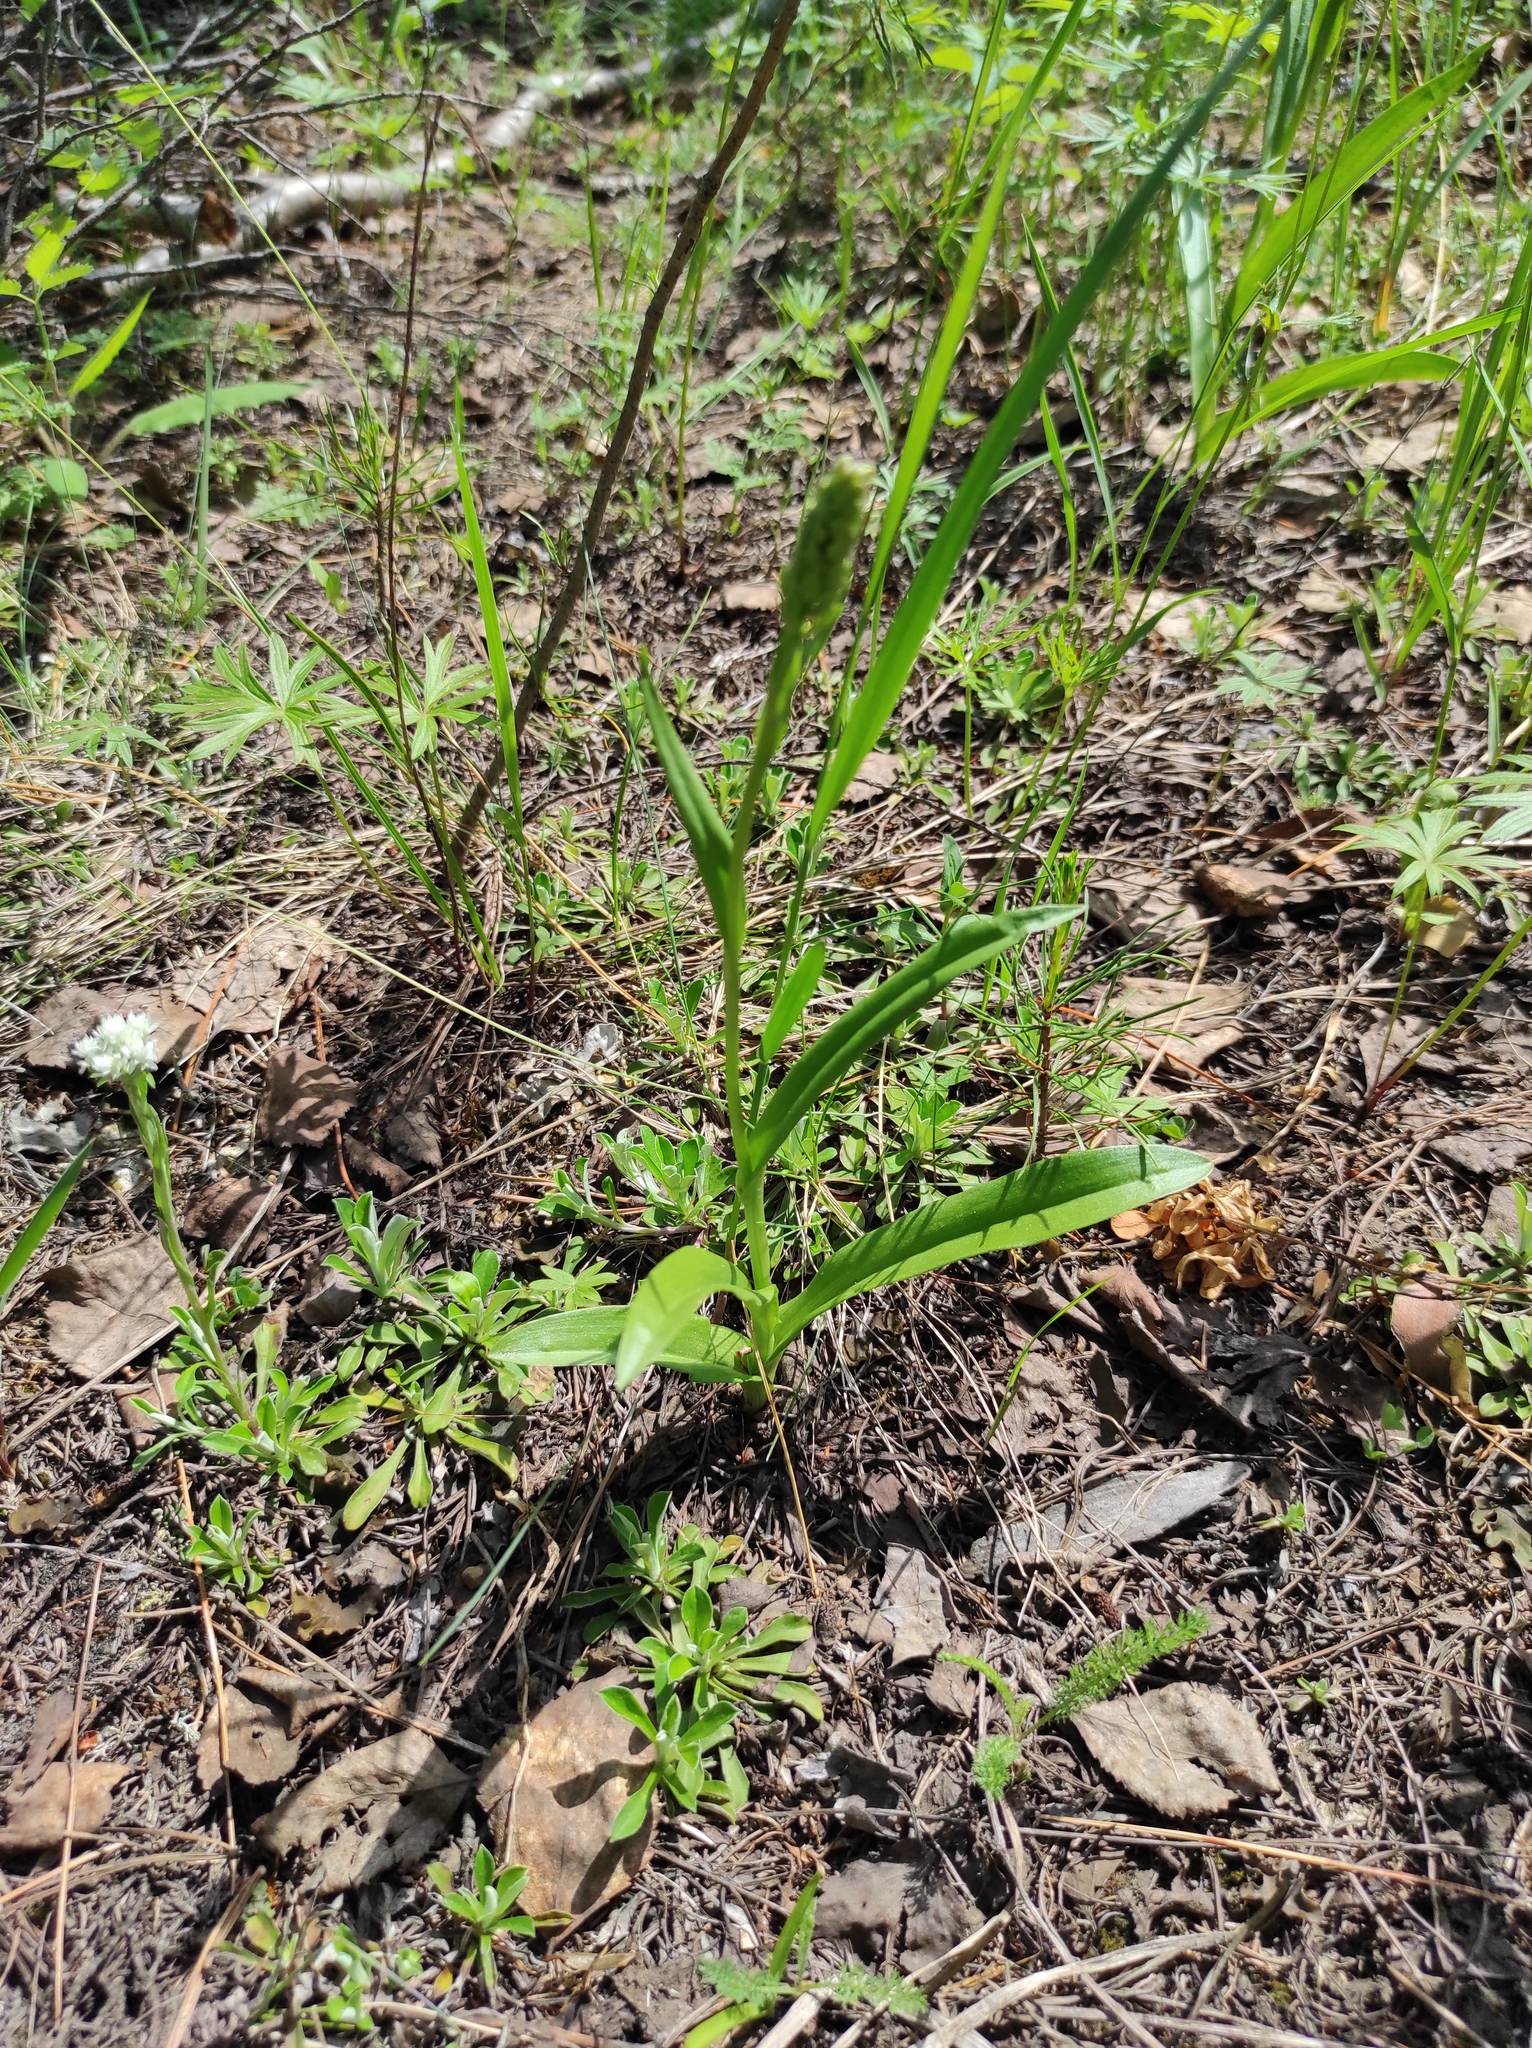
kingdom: Plantae
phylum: Tracheophyta
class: Magnoliopsida
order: Asterales
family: Asteraceae
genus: Antennaria
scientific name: Antennaria dioica
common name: Mountain everlasting
